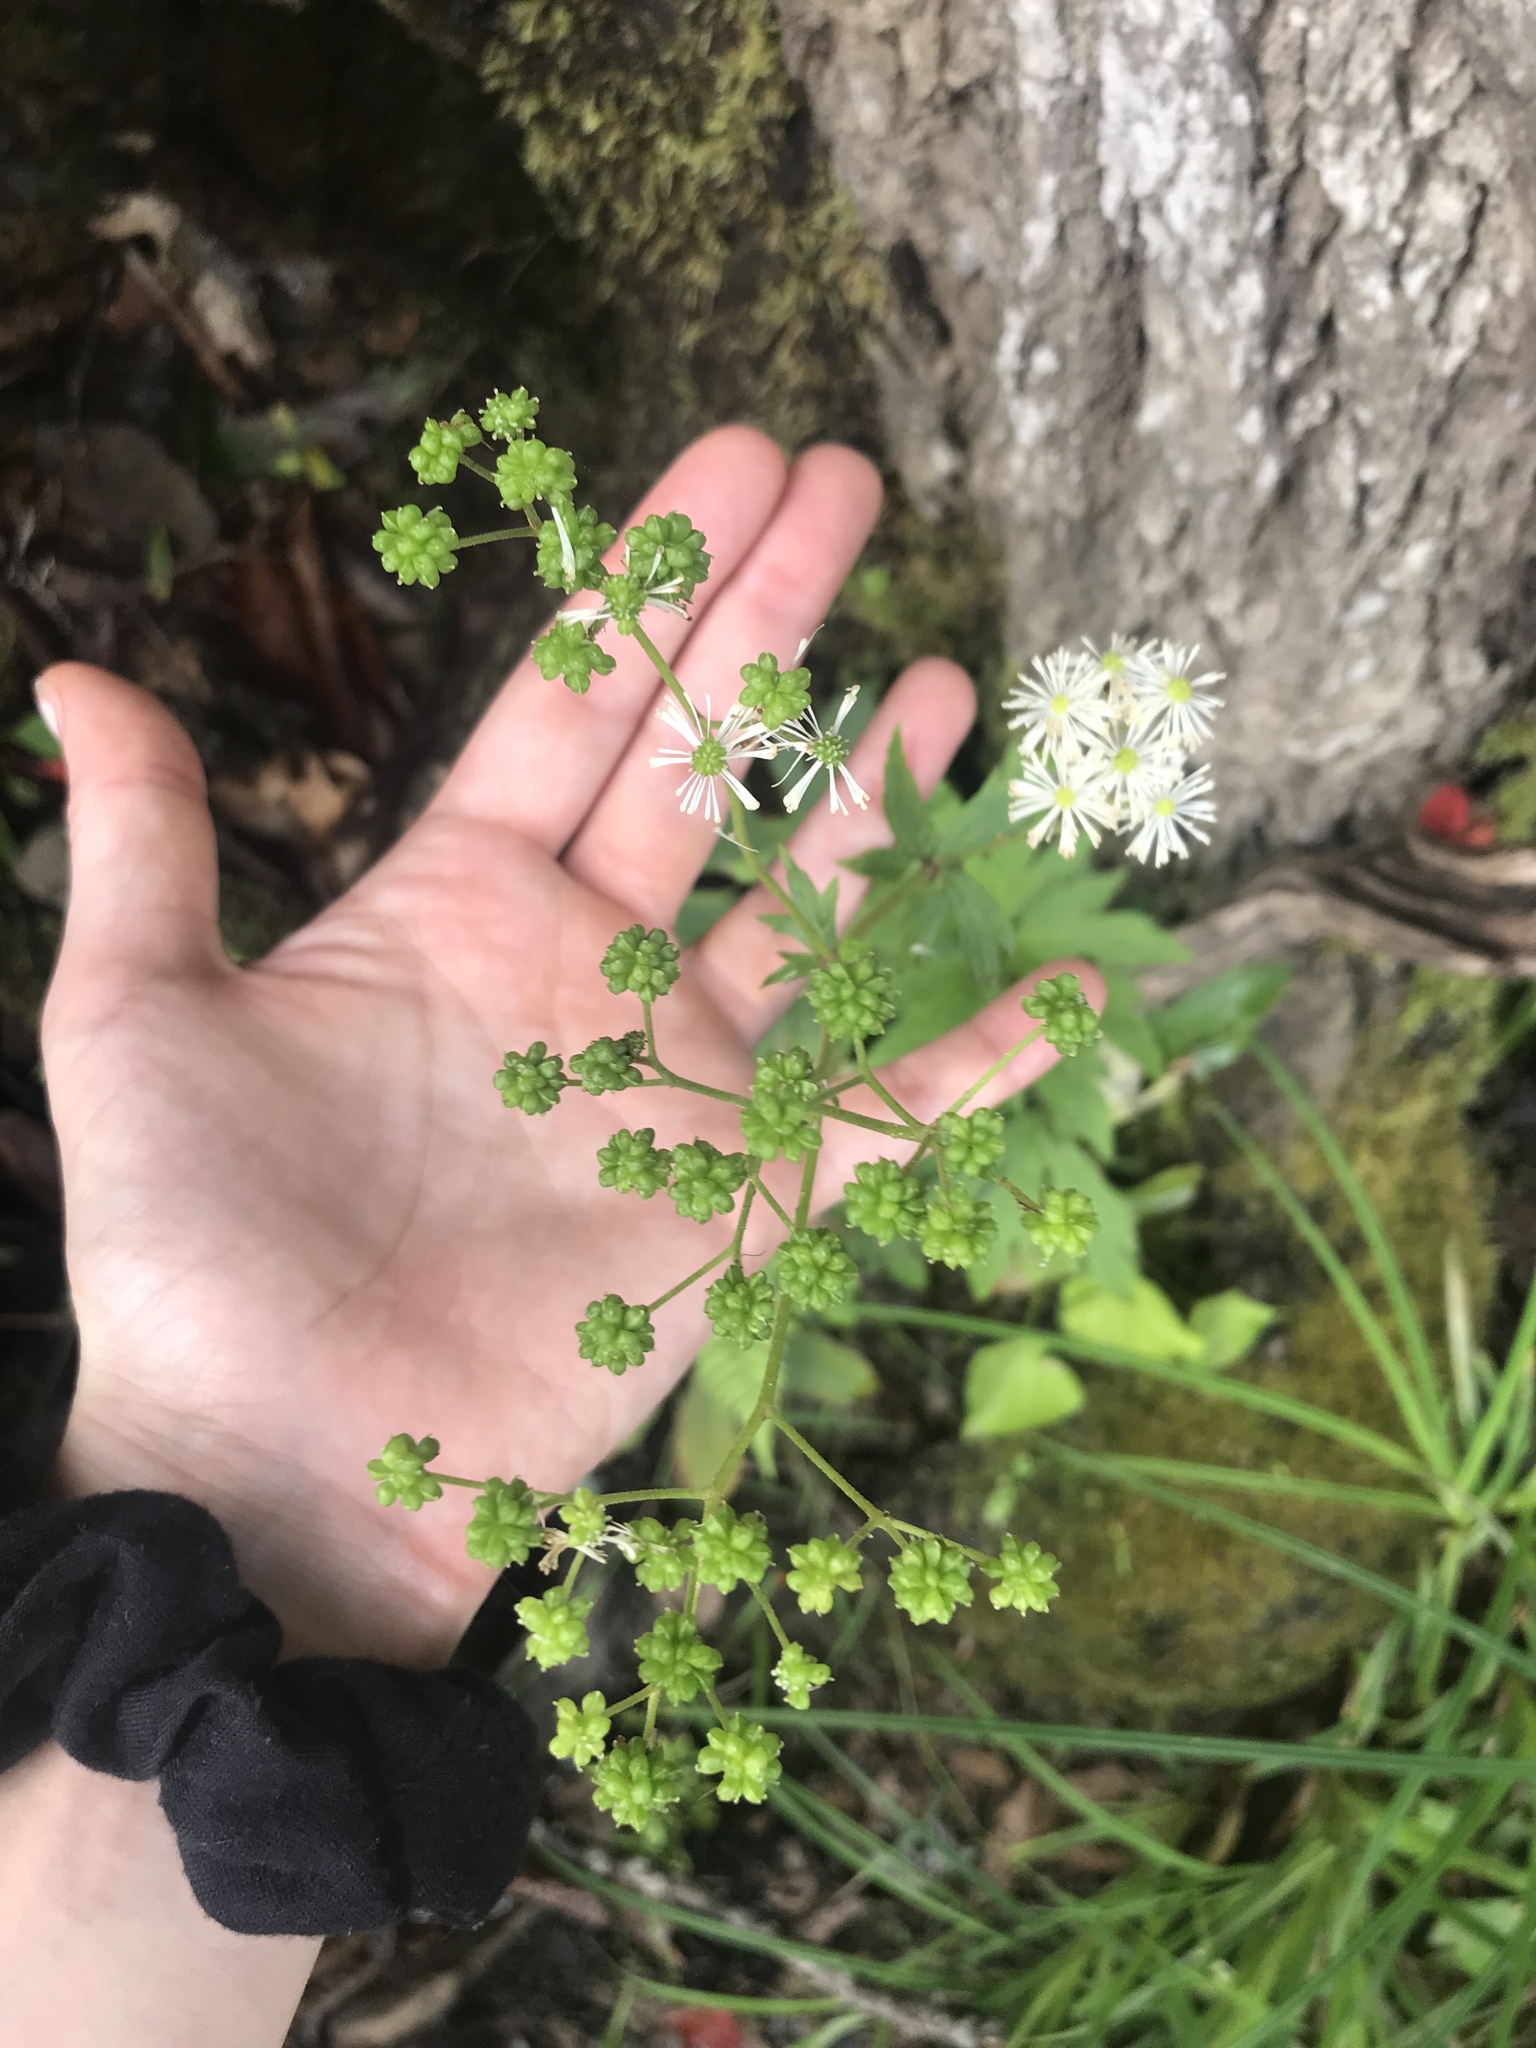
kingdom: Plantae
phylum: Tracheophyta
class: Magnoliopsida
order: Ranunculales
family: Ranunculaceae
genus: Thalictrum
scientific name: Thalictrum pubescens
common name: King-of-the-meadow
